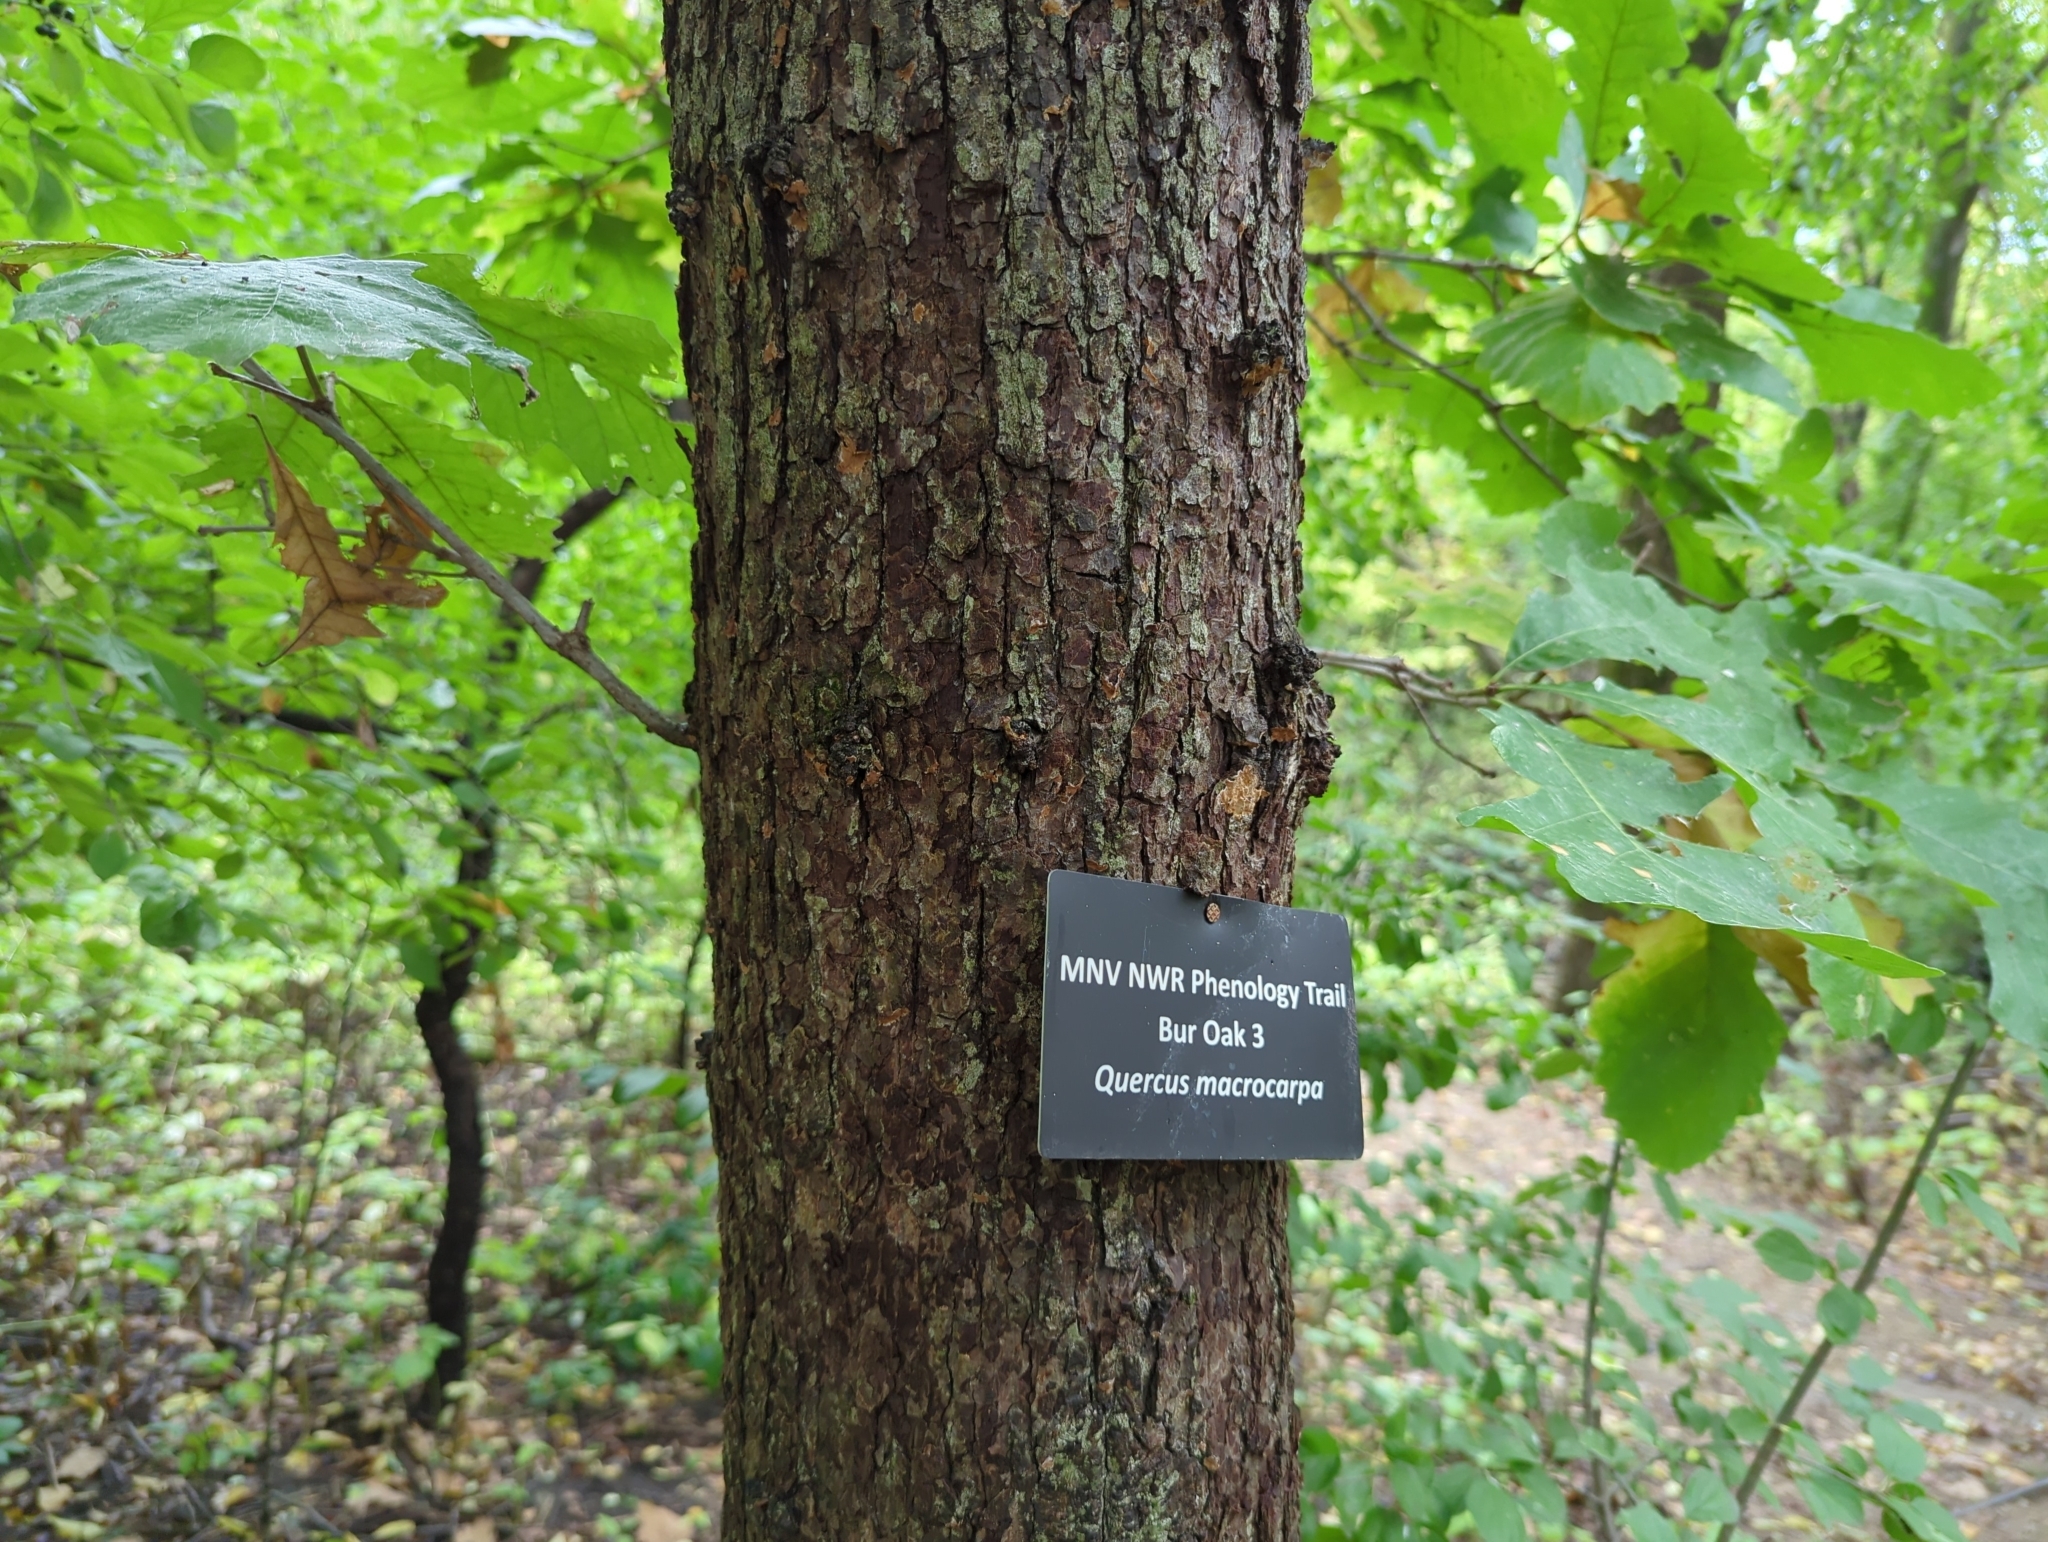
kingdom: Plantae
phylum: Tracheophyta
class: Magnoliopsida
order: Fagales
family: Fagaceae
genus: Quercus
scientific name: Quercus macrocarpa
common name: Bur oak
